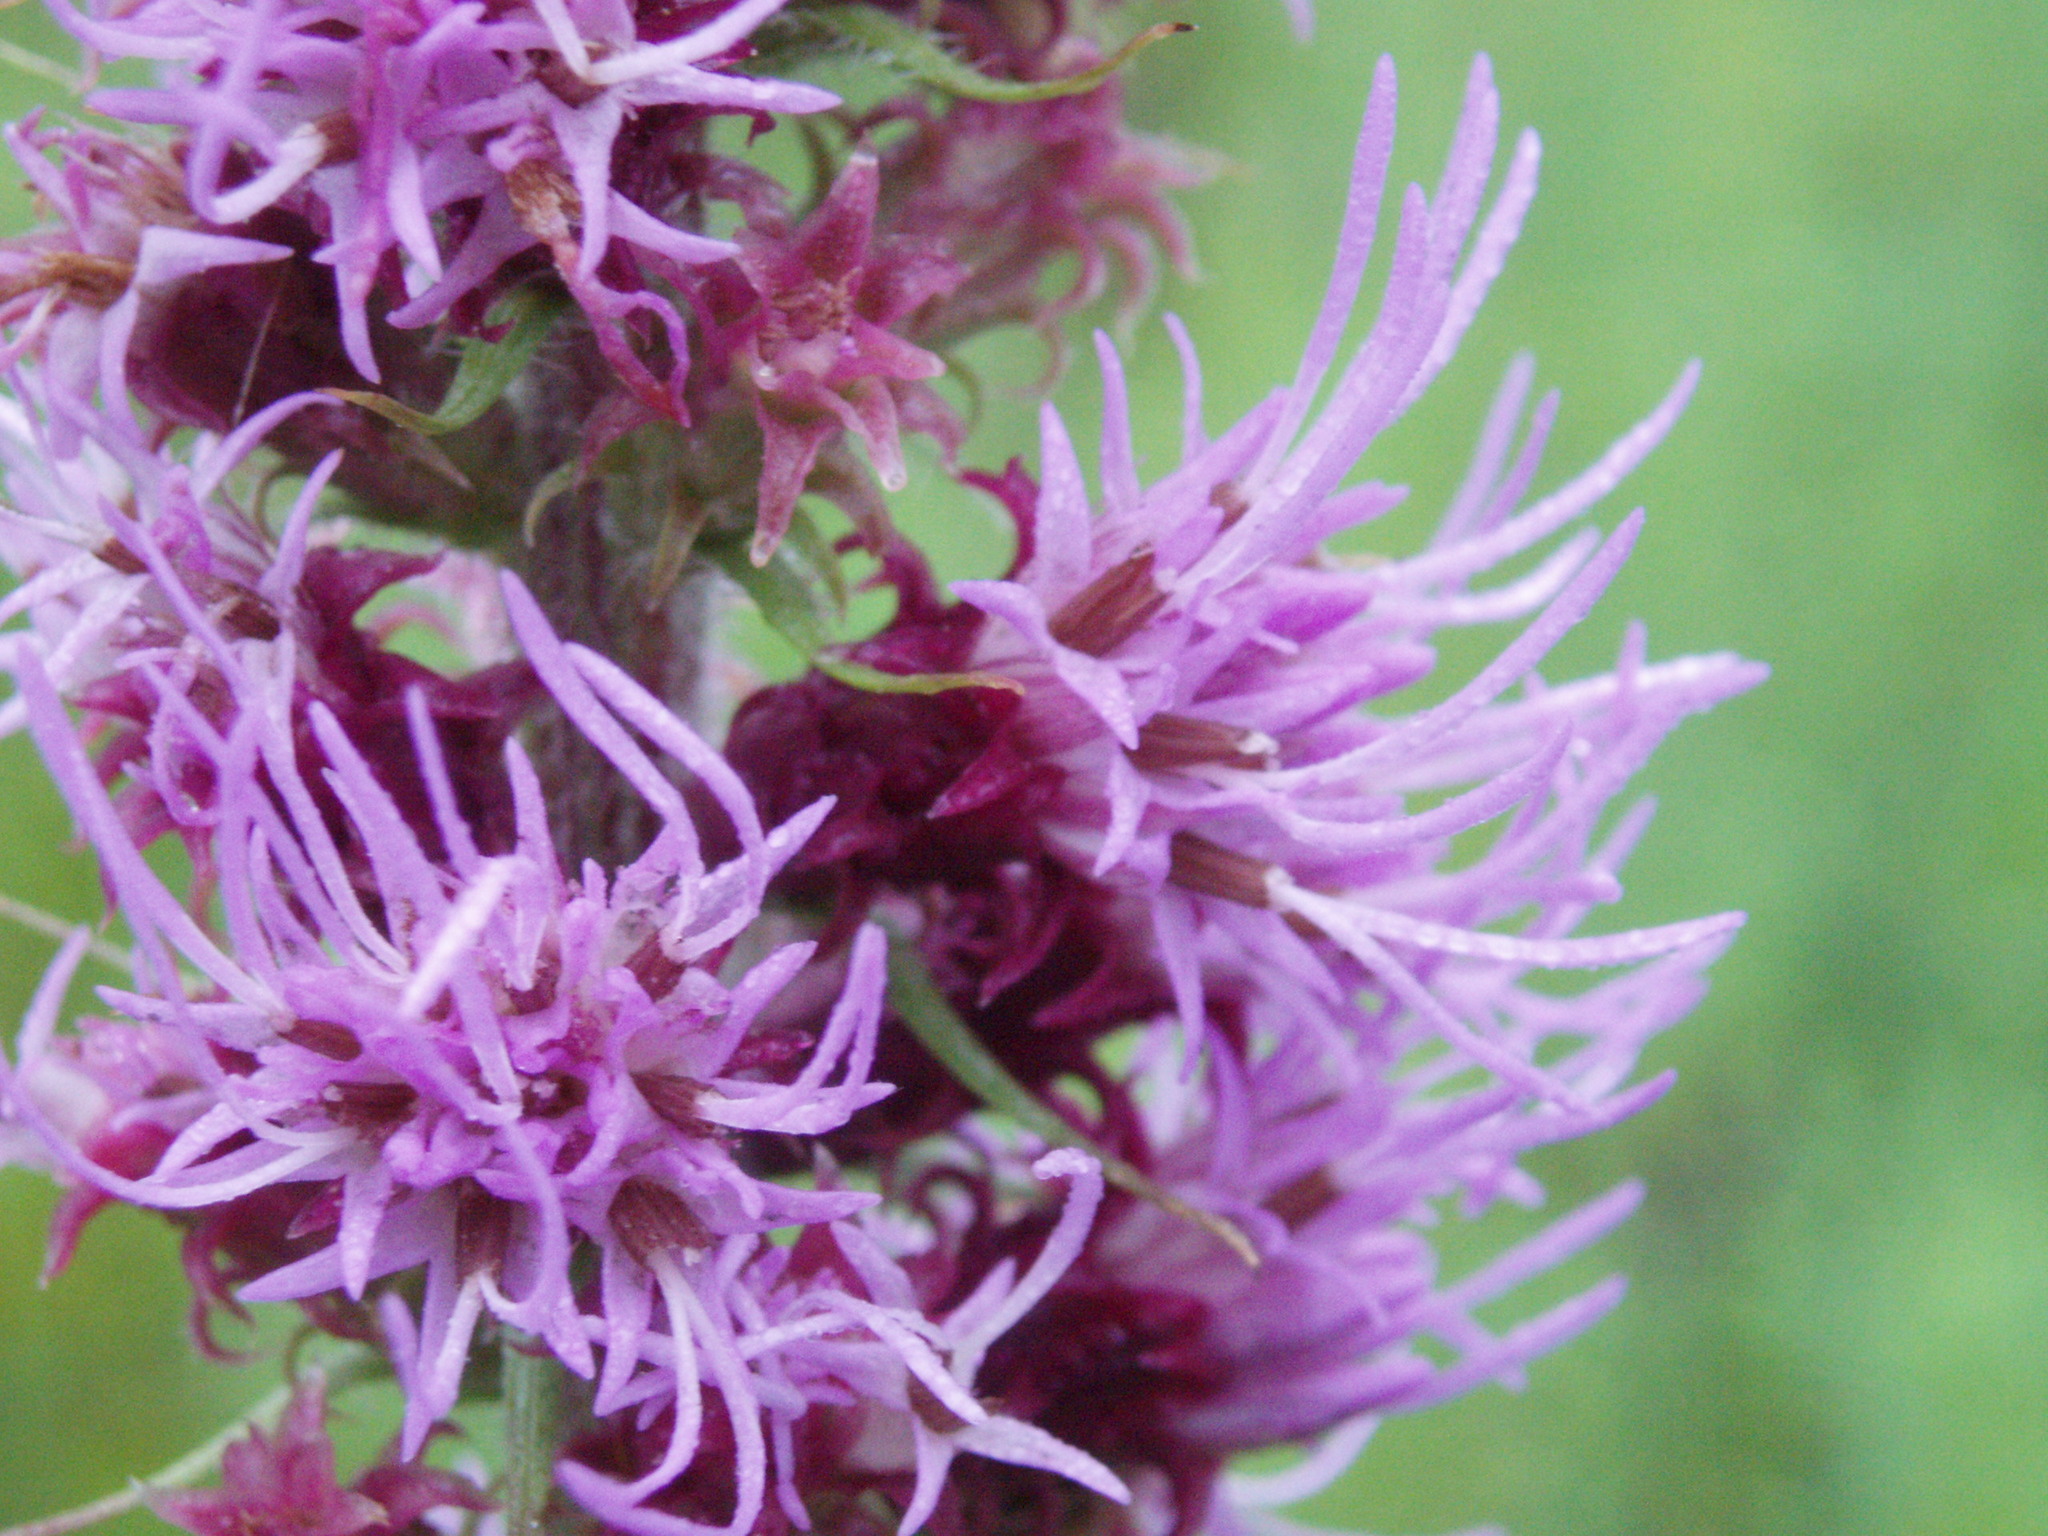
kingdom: Plantae
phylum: Tracheophyta
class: Magnoliopsida
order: Asterales
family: Asteraceae
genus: Liatris
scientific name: Liatris pycnostachya
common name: Cattail gayfeather
